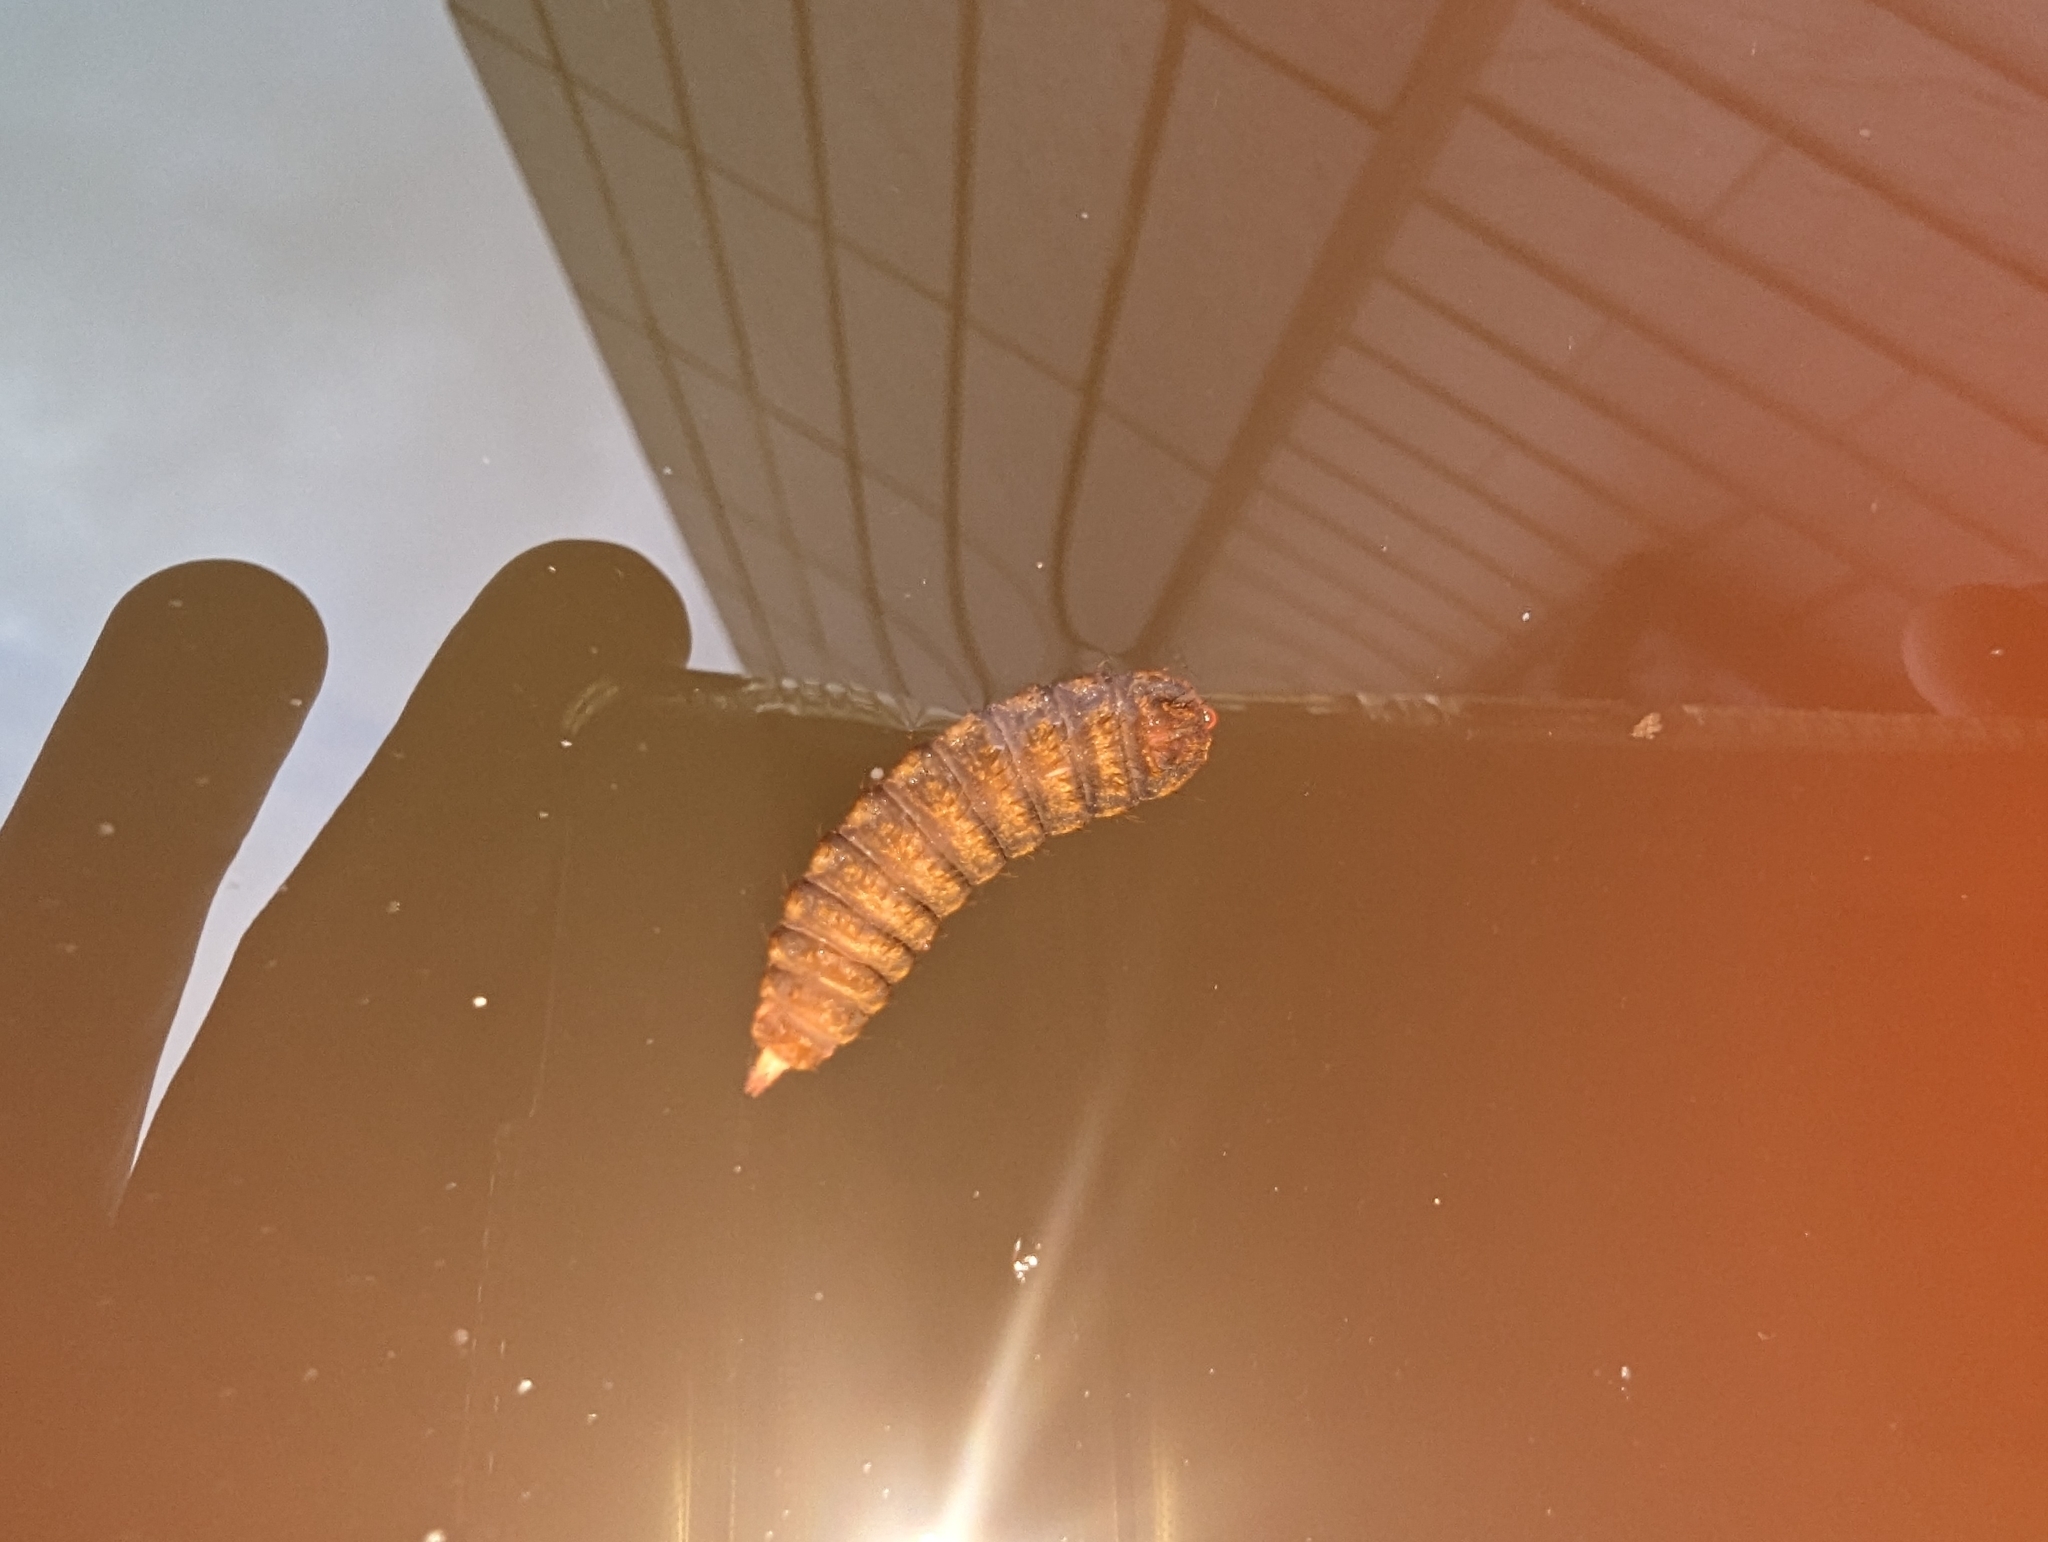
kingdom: Animalia
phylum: Arthropoda
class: Insecta
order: Diptera
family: Stratiomyidae
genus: Hermetia
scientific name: Hermetia illucens
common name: Black soldier fly
